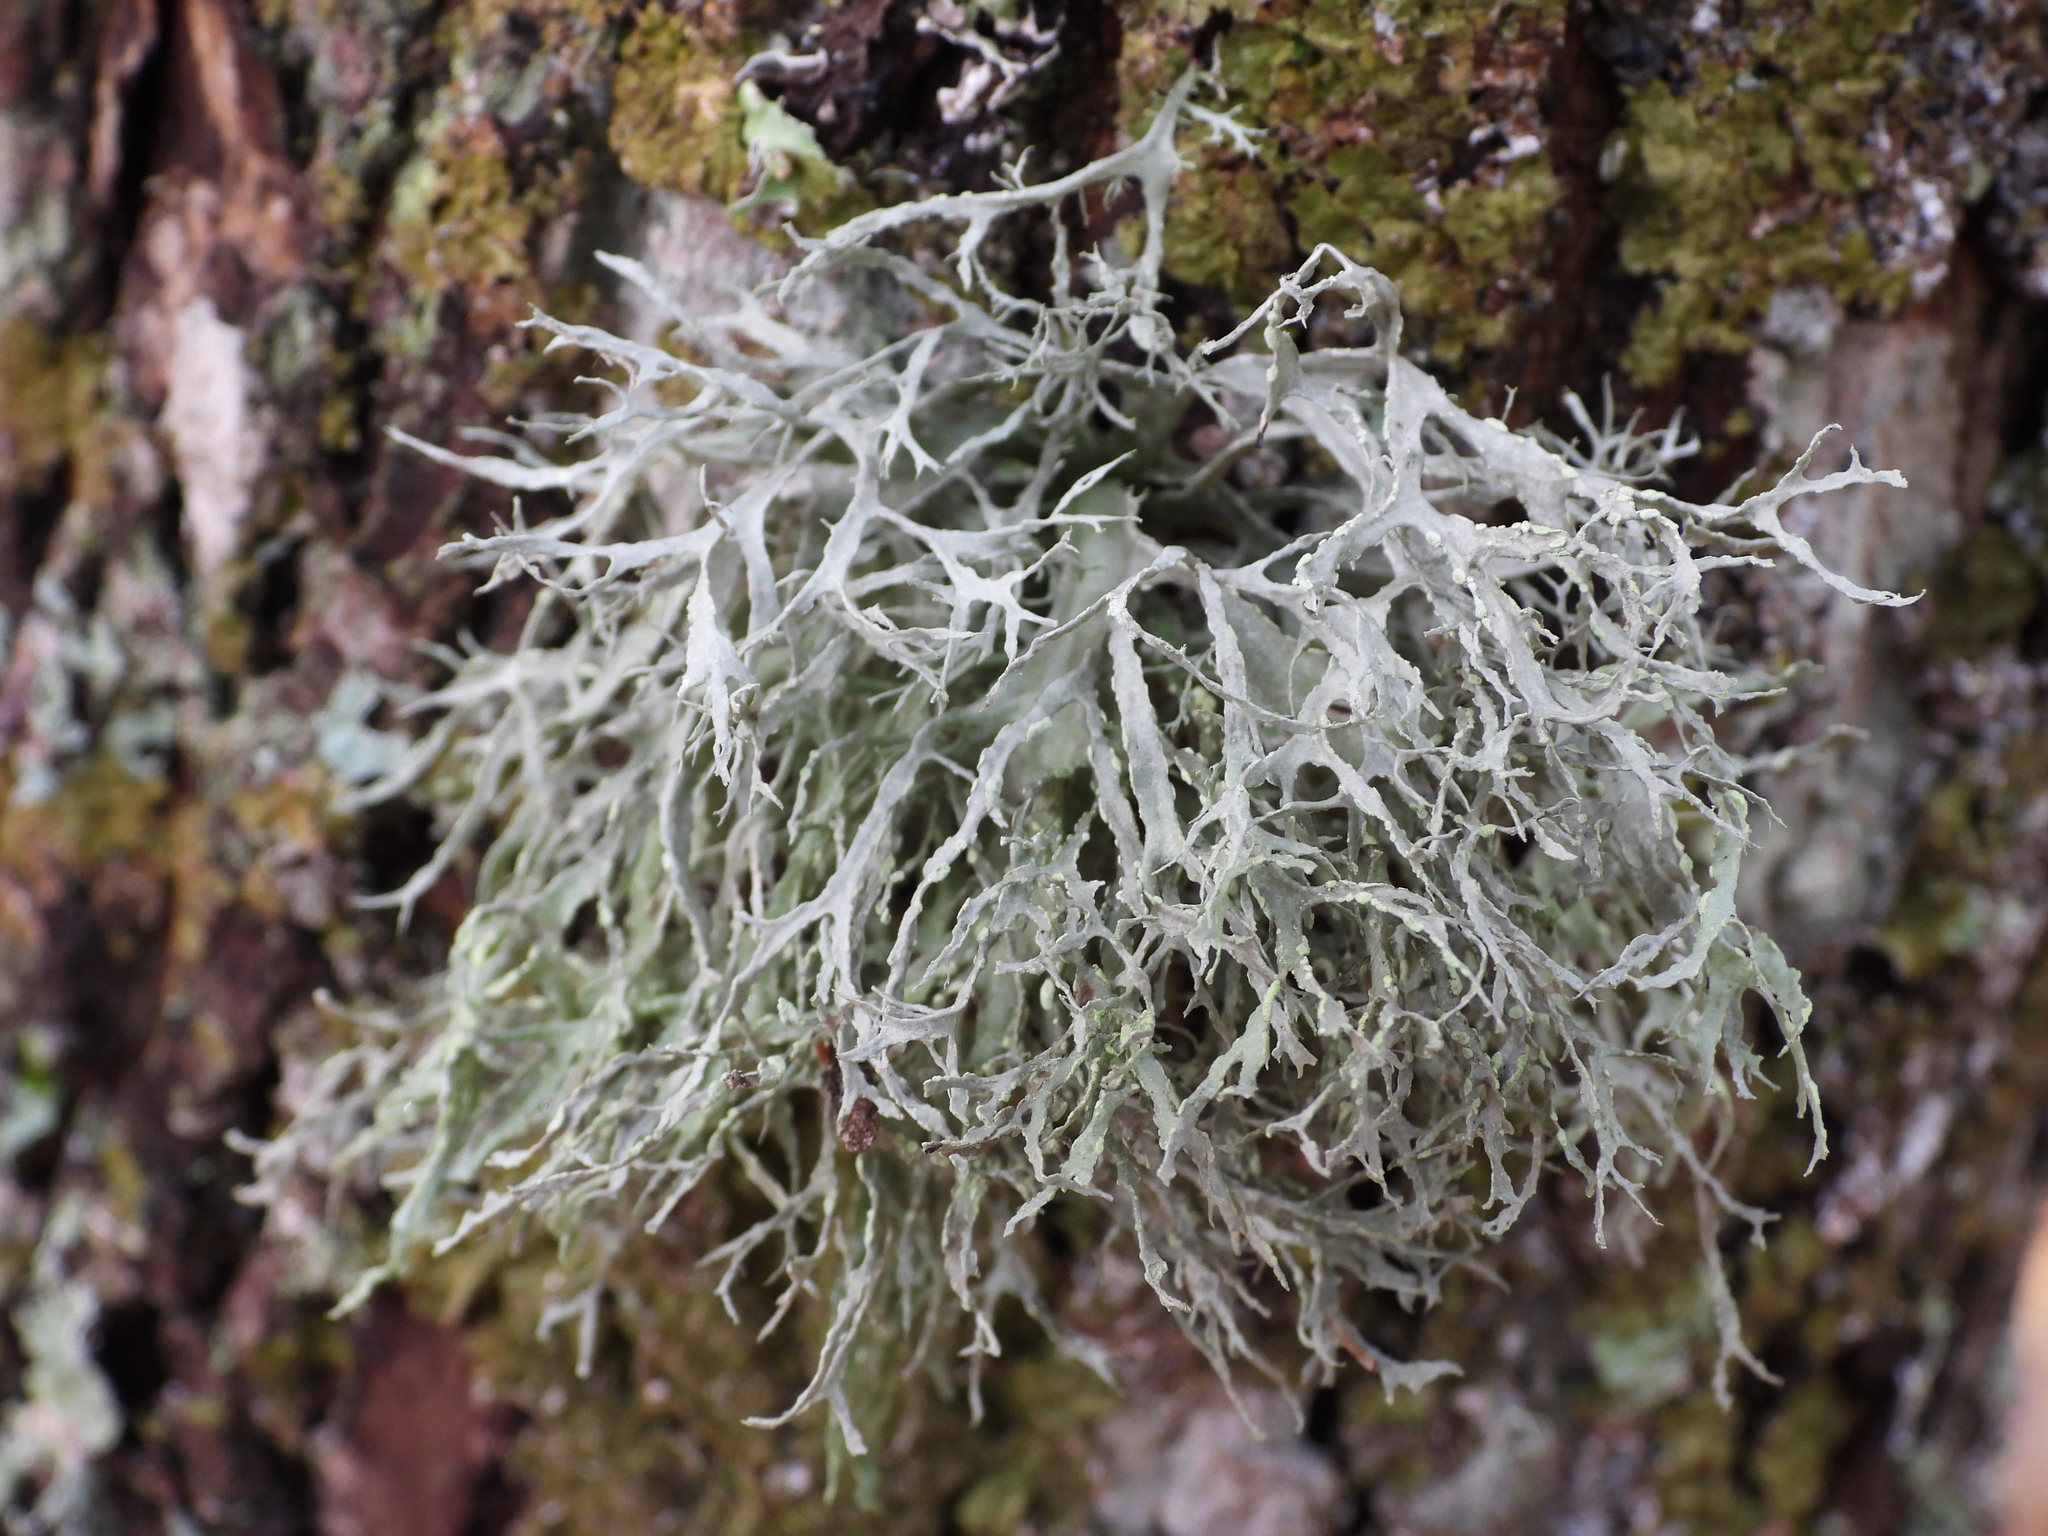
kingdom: Fungi
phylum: Ascomycota
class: Lecanoromycetes
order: Lecanorales
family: Ramalinaceae
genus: Ramalina
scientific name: Ramalina farinacea
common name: Farinose cartilage lichen
